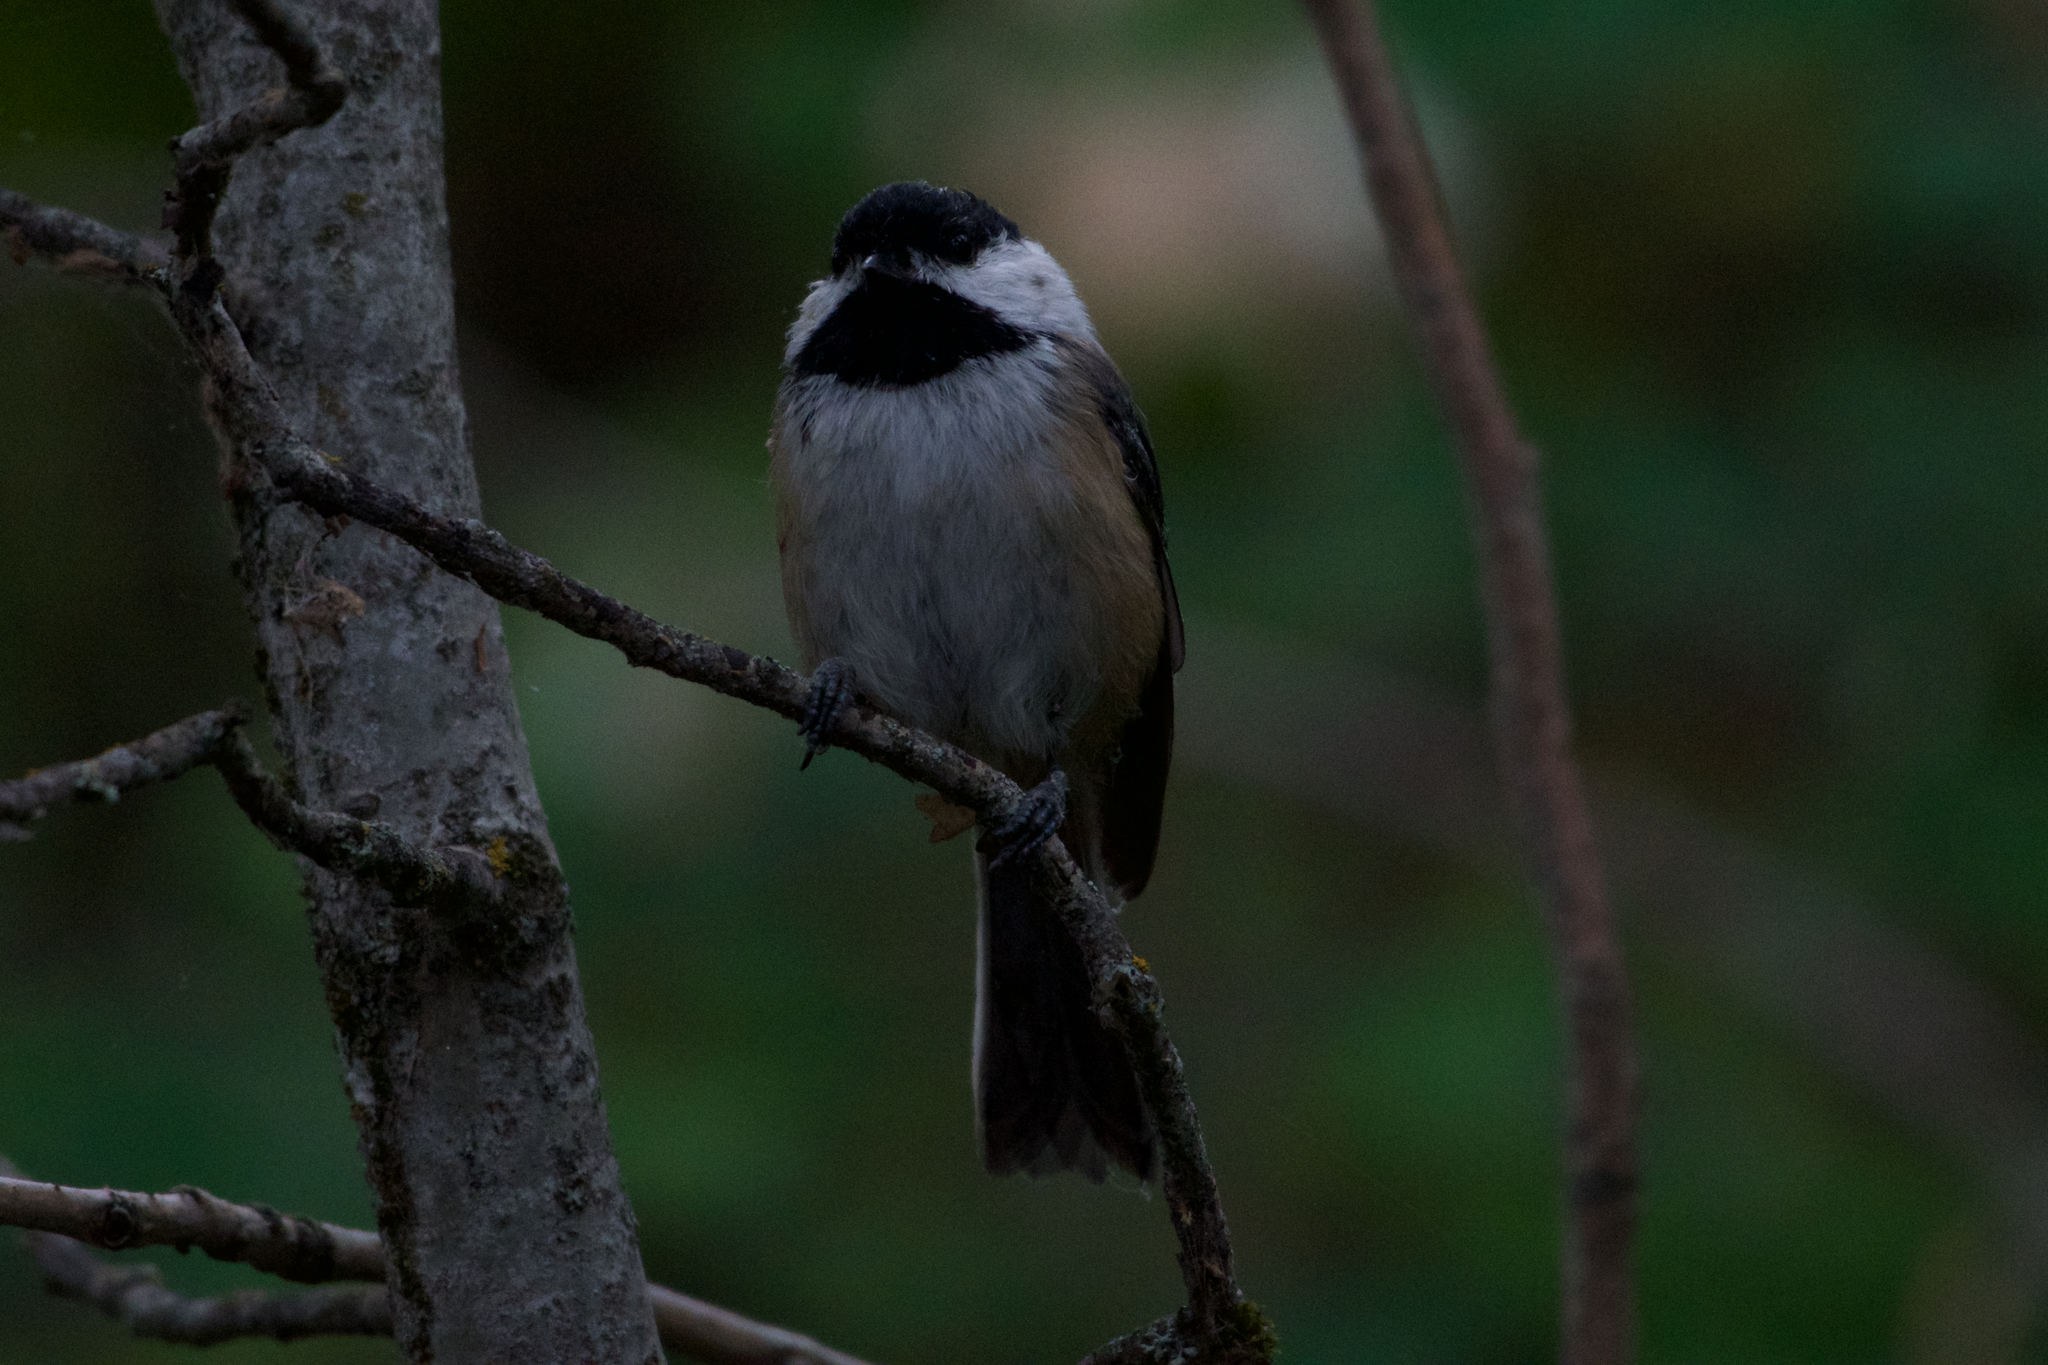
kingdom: Animalia
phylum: Chordata
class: Aves
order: Passeriformes
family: Paridae
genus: Poecile
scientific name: Poecile atricapillus
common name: Black-capped chickadee
